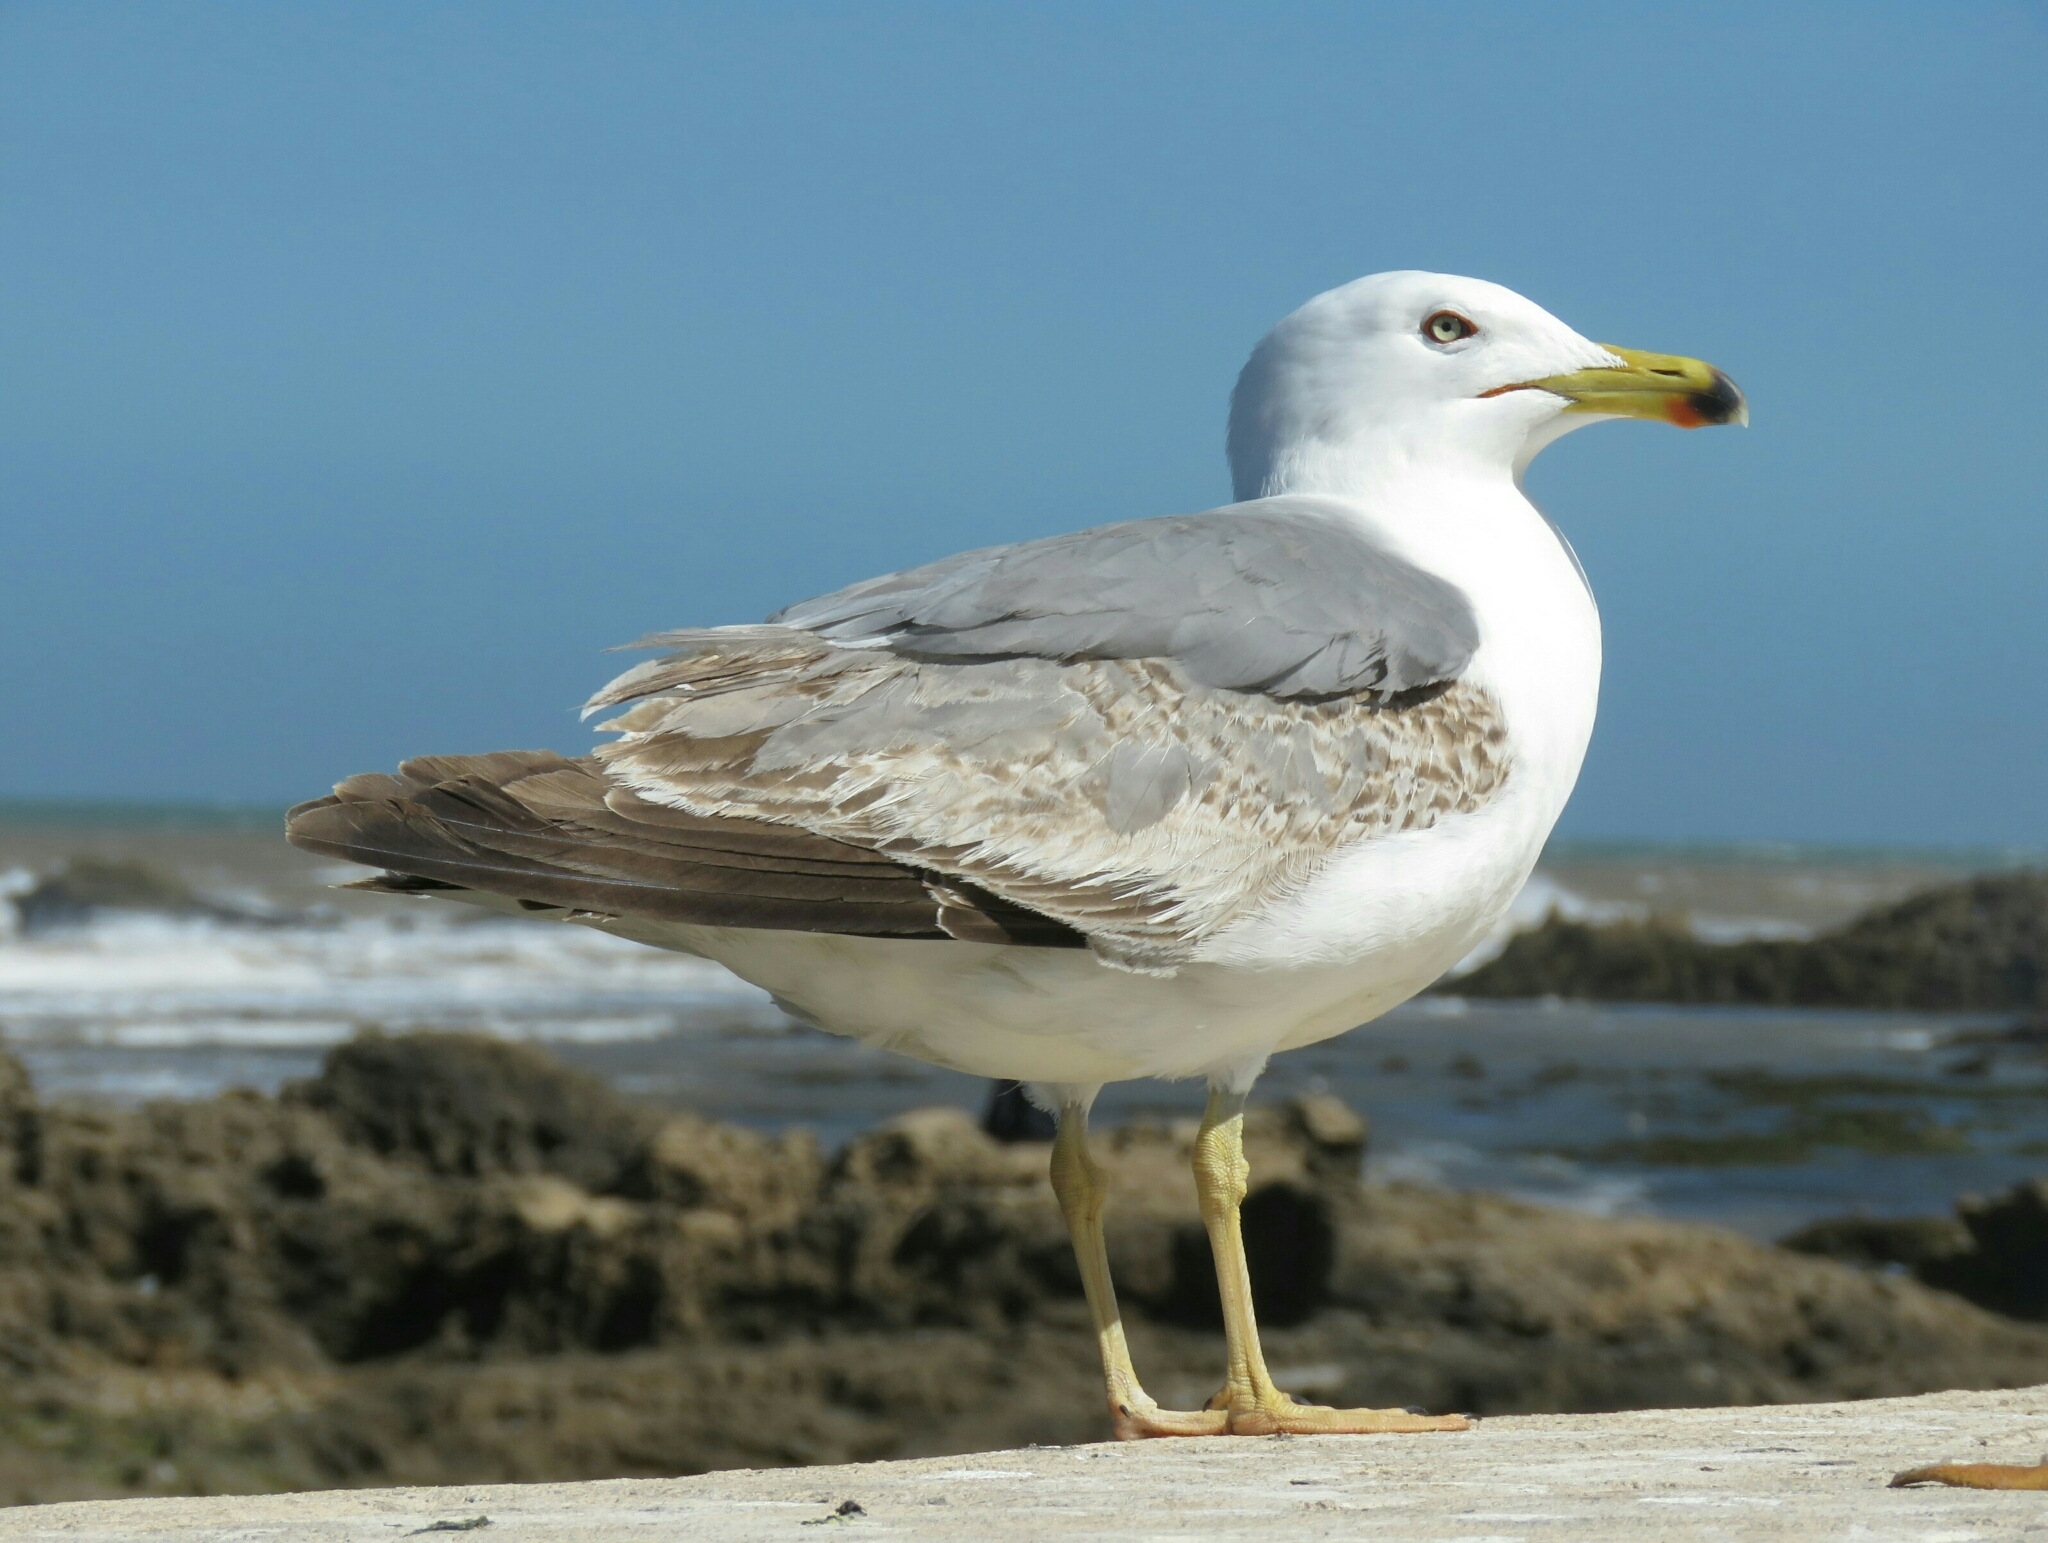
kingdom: Animalia
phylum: Chordata
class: Aves
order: Charadriiformes
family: Laridae
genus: Larus
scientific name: Larus michahellis
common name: Yellow-legged gull
